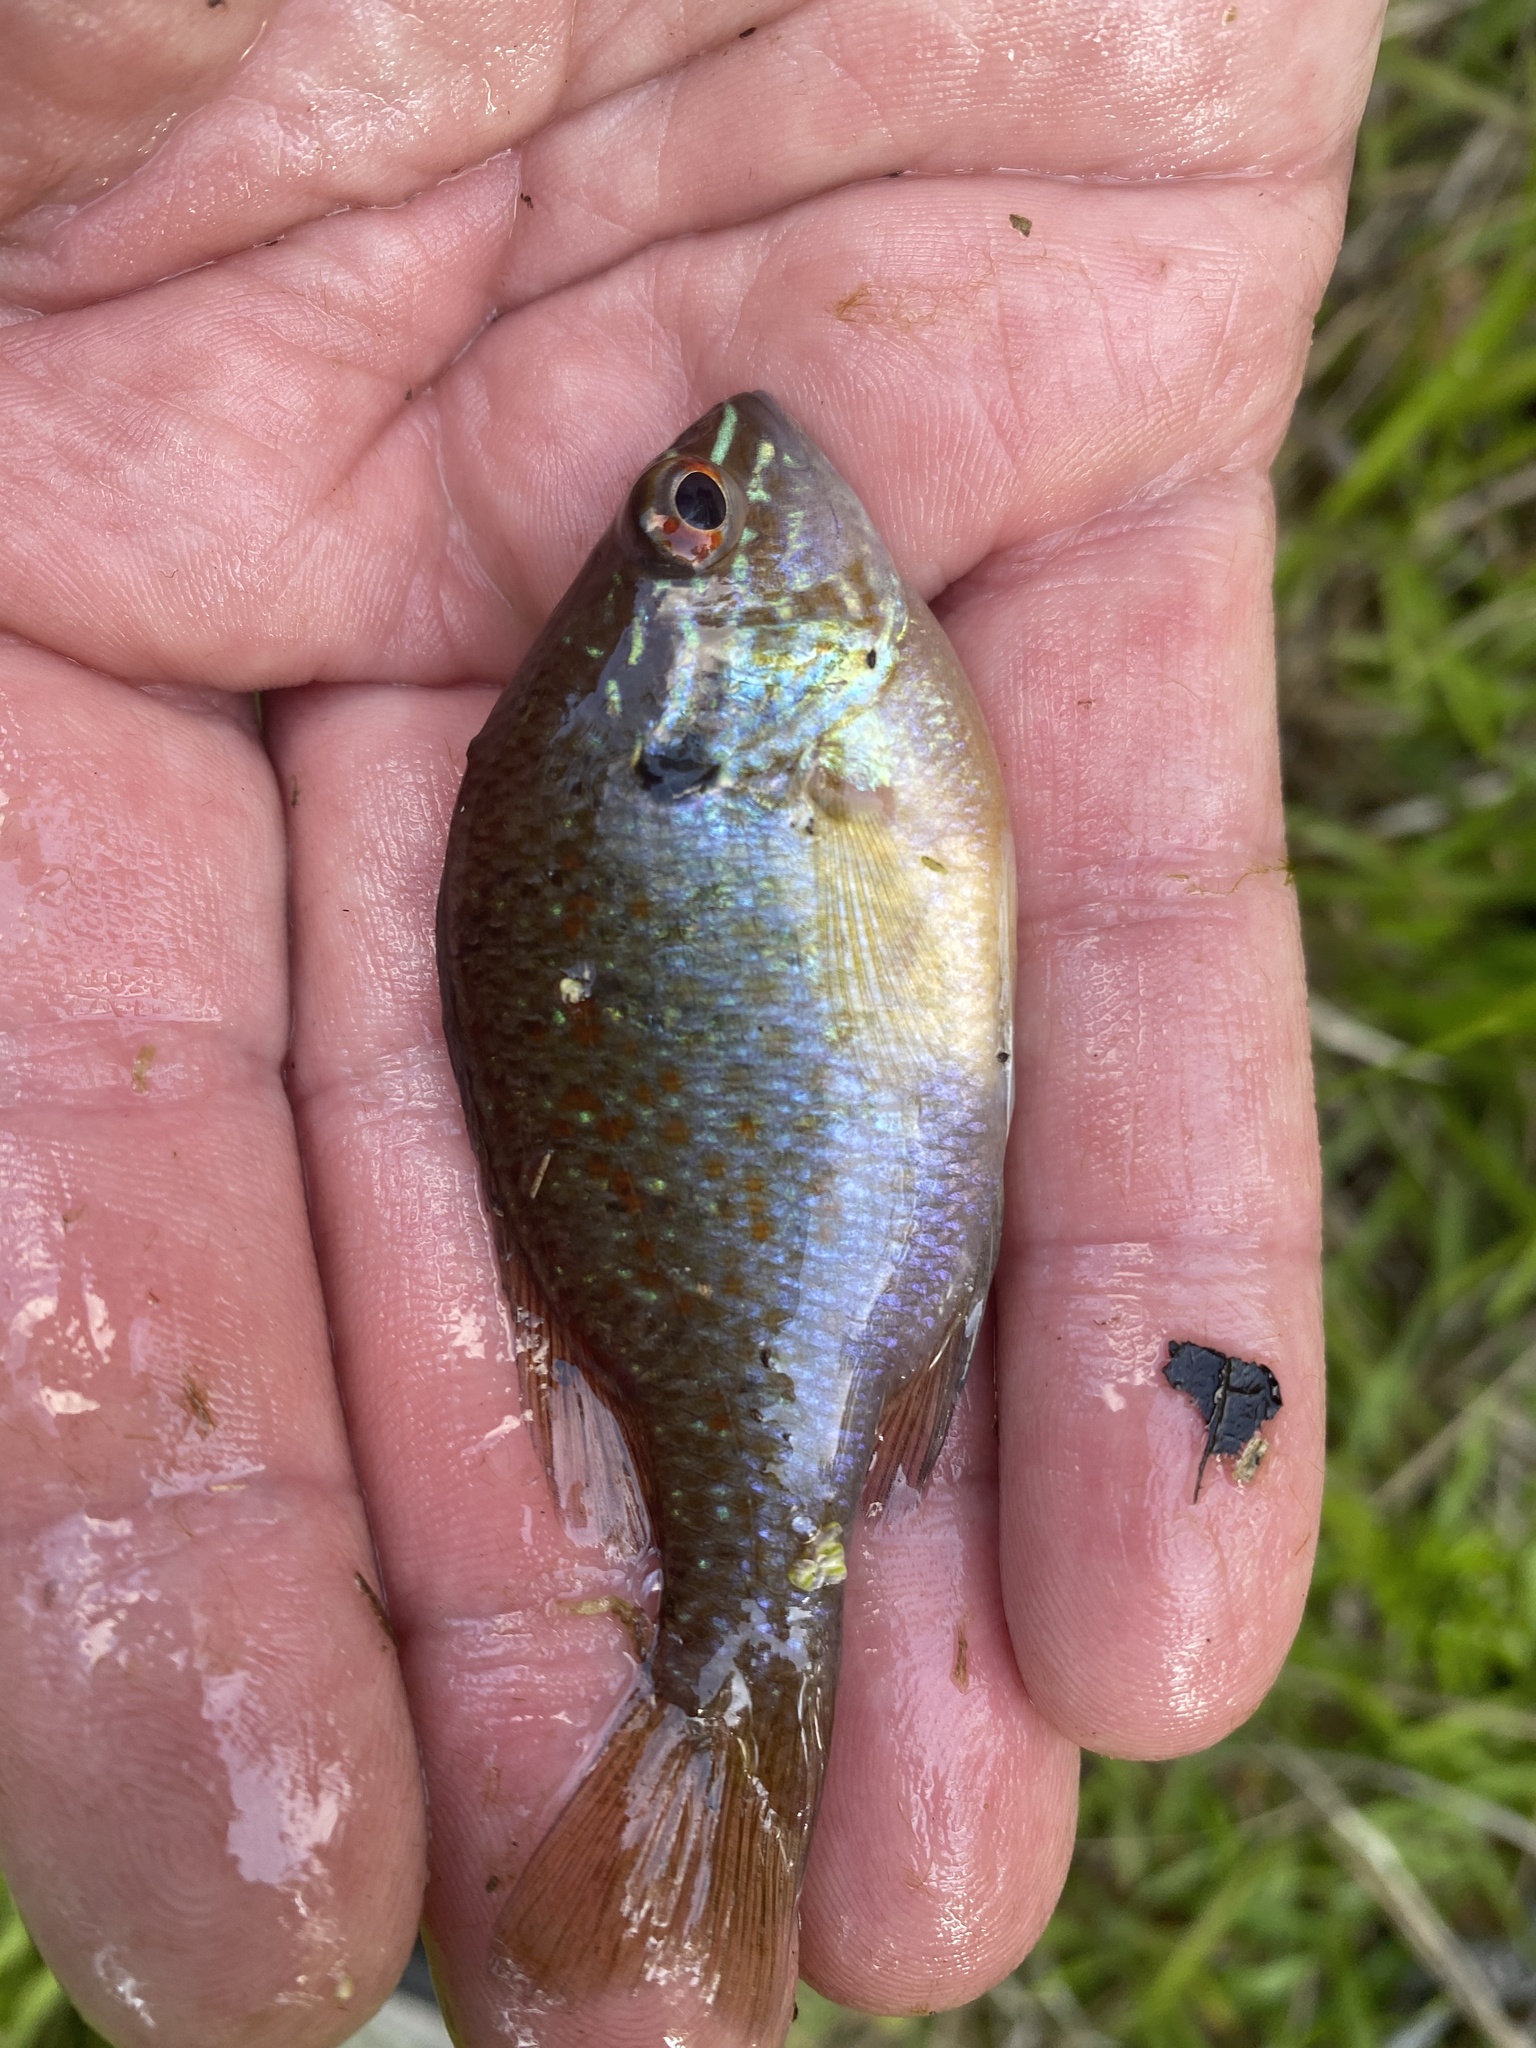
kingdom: Animalia
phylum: Chordata
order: Perciformes
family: Centrarchidae
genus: Lepomis
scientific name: Lepomis marginatus
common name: Dollar sunfish
